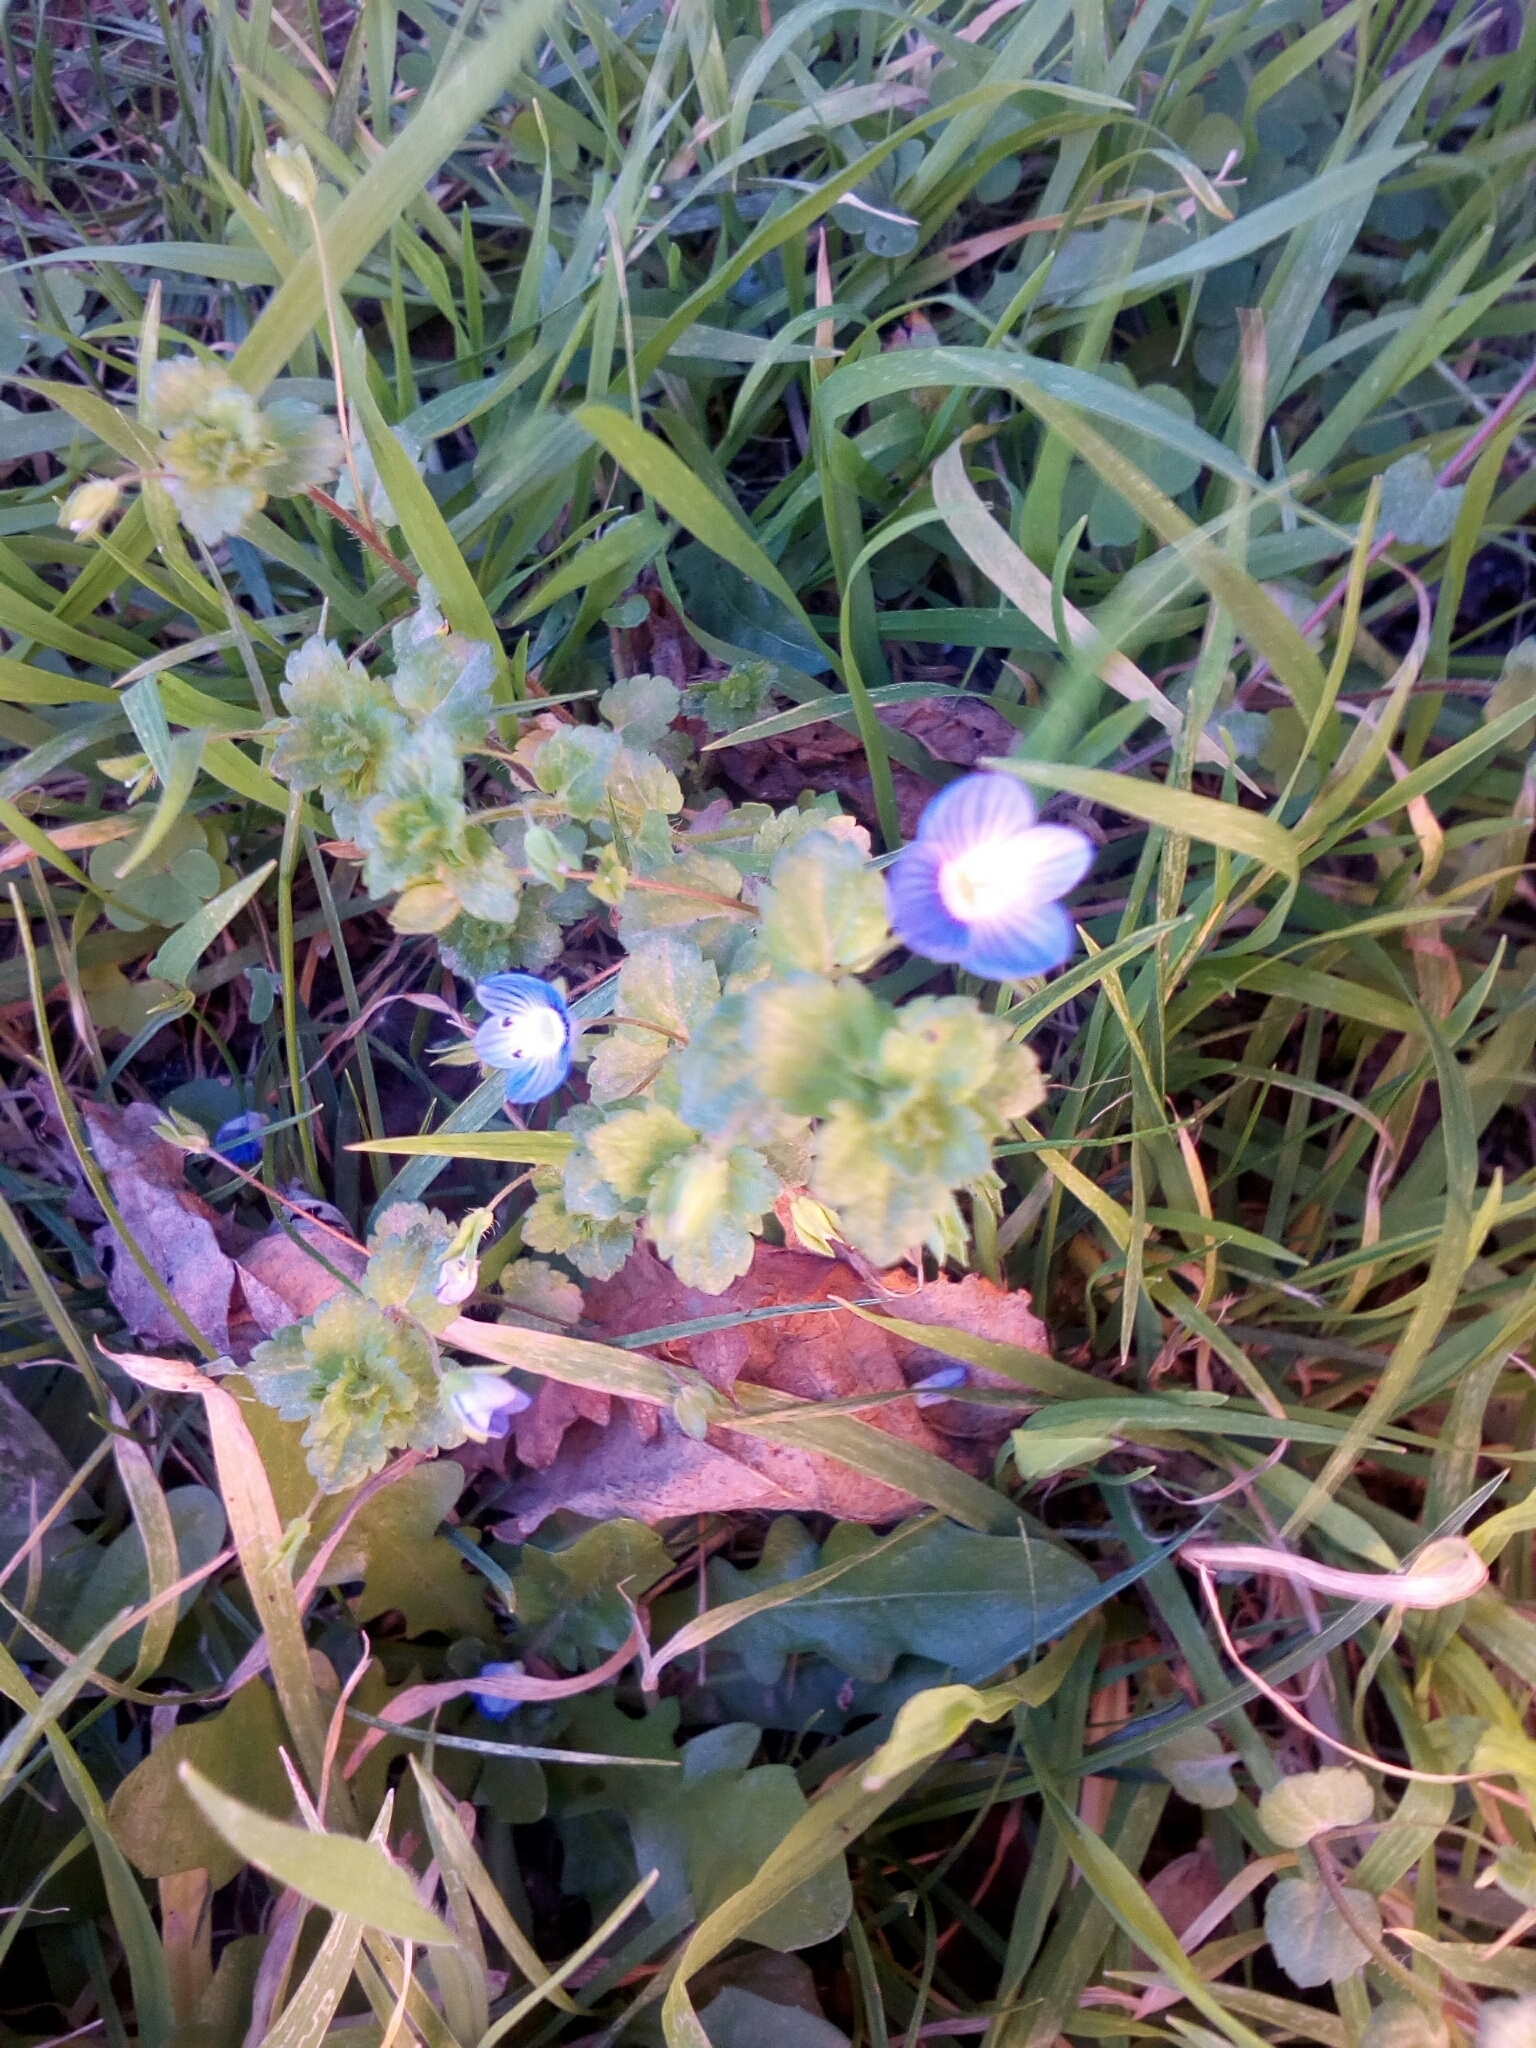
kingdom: Plantae
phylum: Tracheophyta
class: Magnoliopsida
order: Lamiales
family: Plantaginaceae
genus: Veronica
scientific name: Veronica persica
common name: Common field-speedwell
